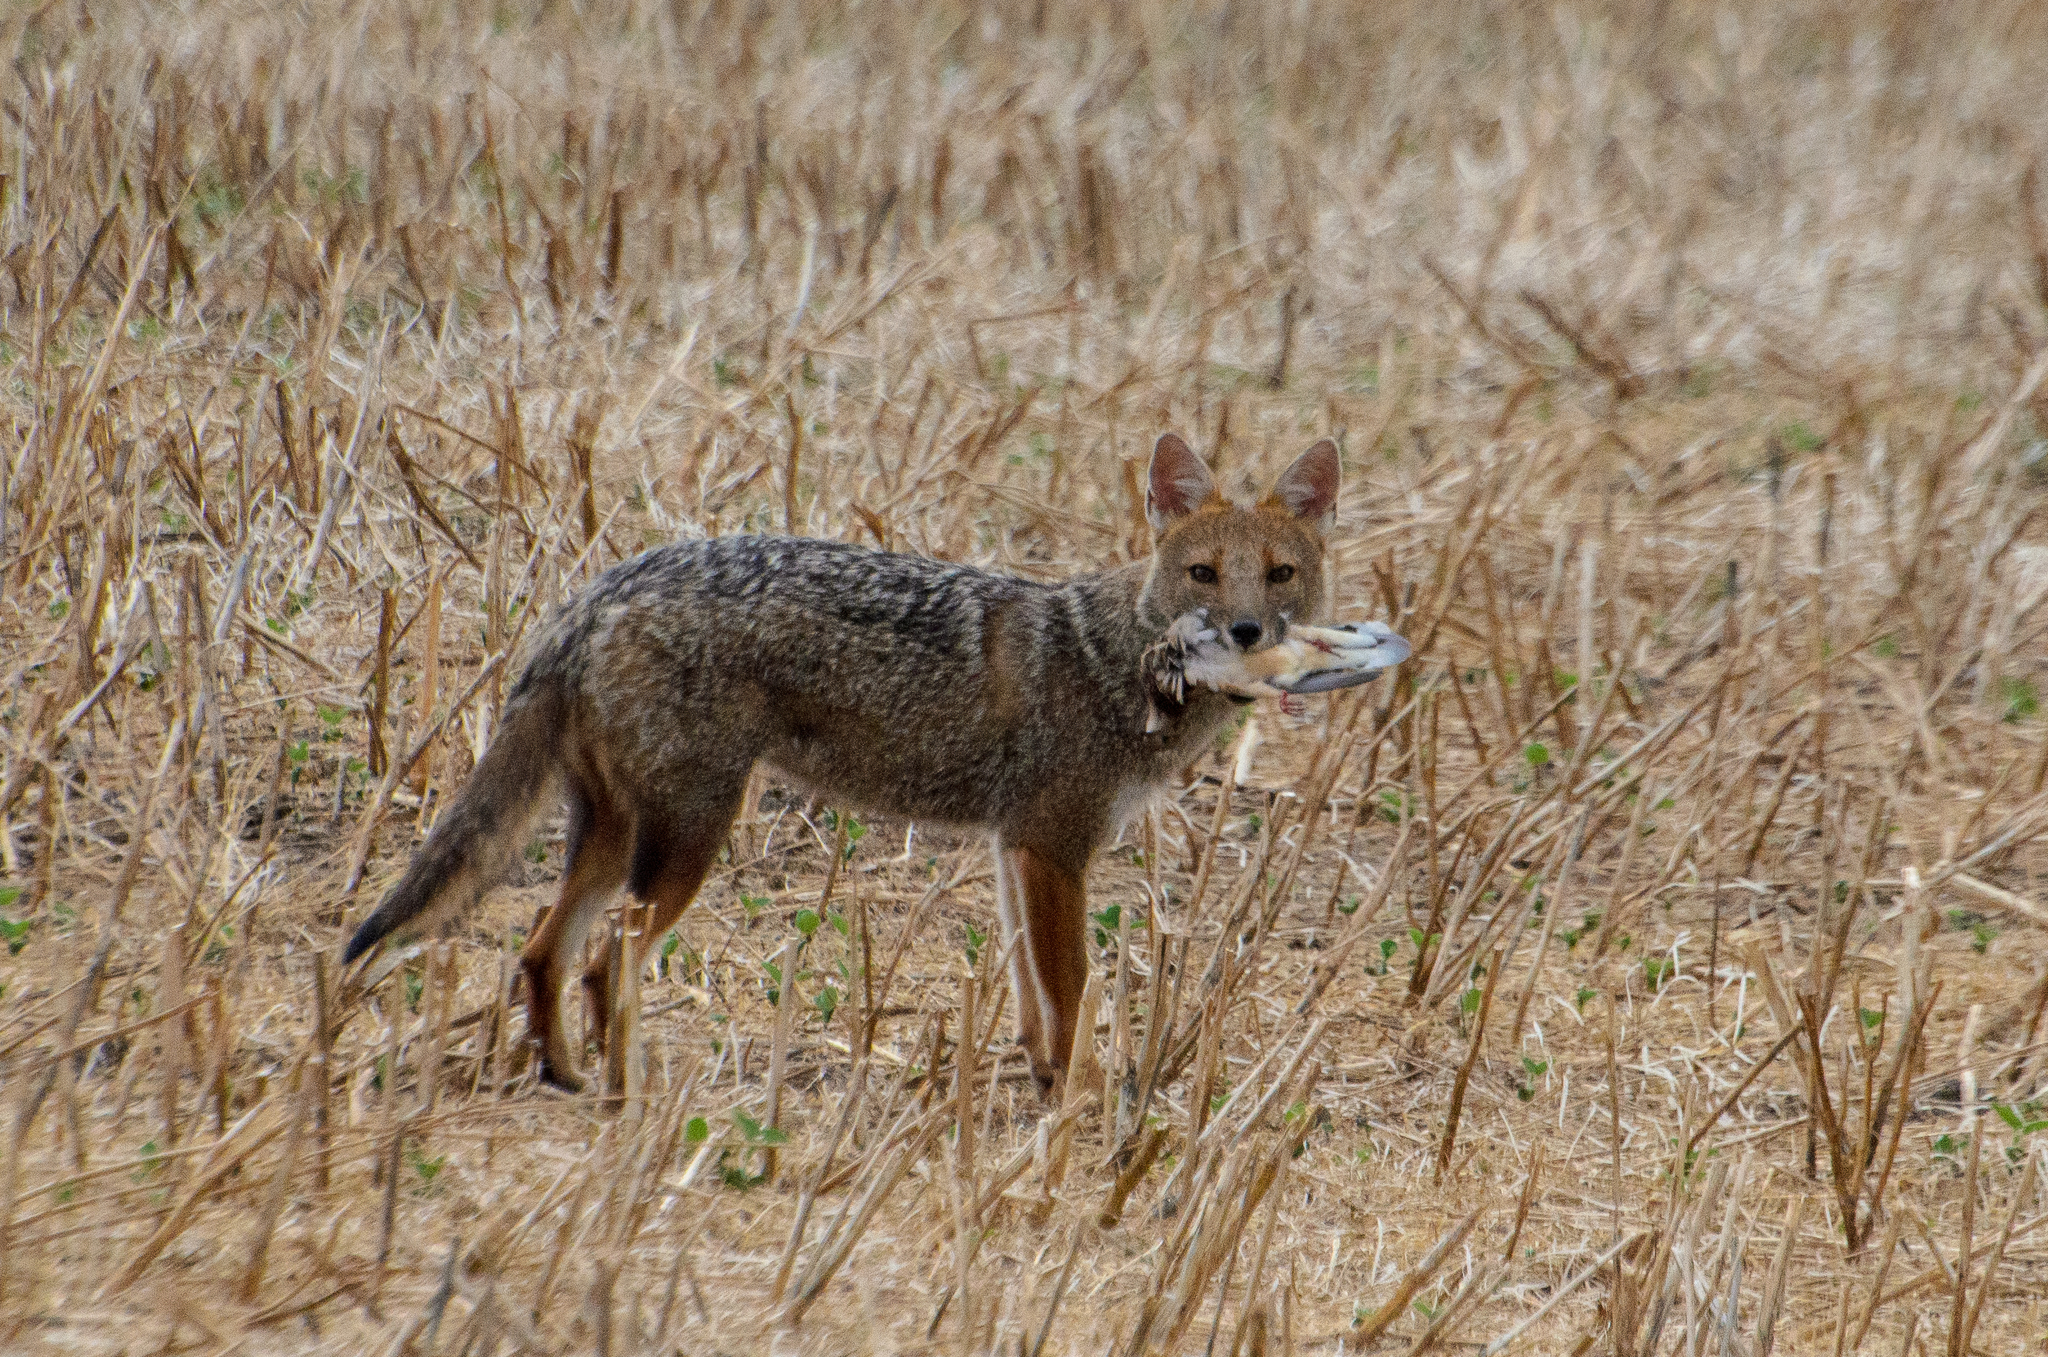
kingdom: Animalia
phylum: Chordata
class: Mammalia
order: Carnivora
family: Canidae
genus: Lycalopex
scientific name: Lycalopex gymnocercus
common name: Pampas fox
